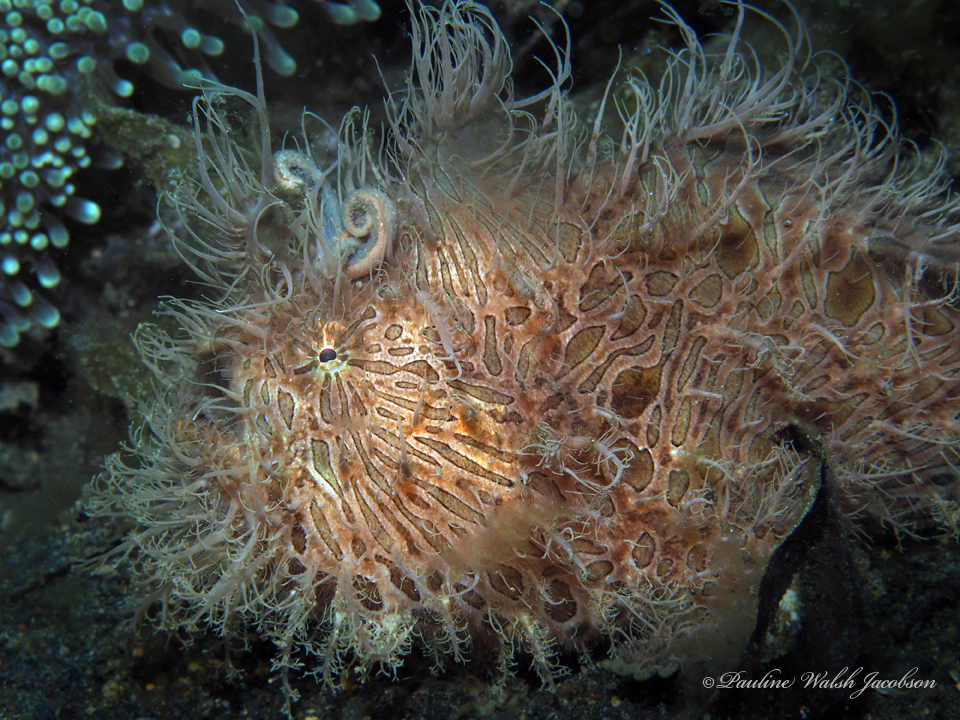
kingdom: Animalia
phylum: Chordata
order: Lophiiformes
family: Antennariidae
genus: Antennarius
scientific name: Antennarius striatus
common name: Striated frogfish
